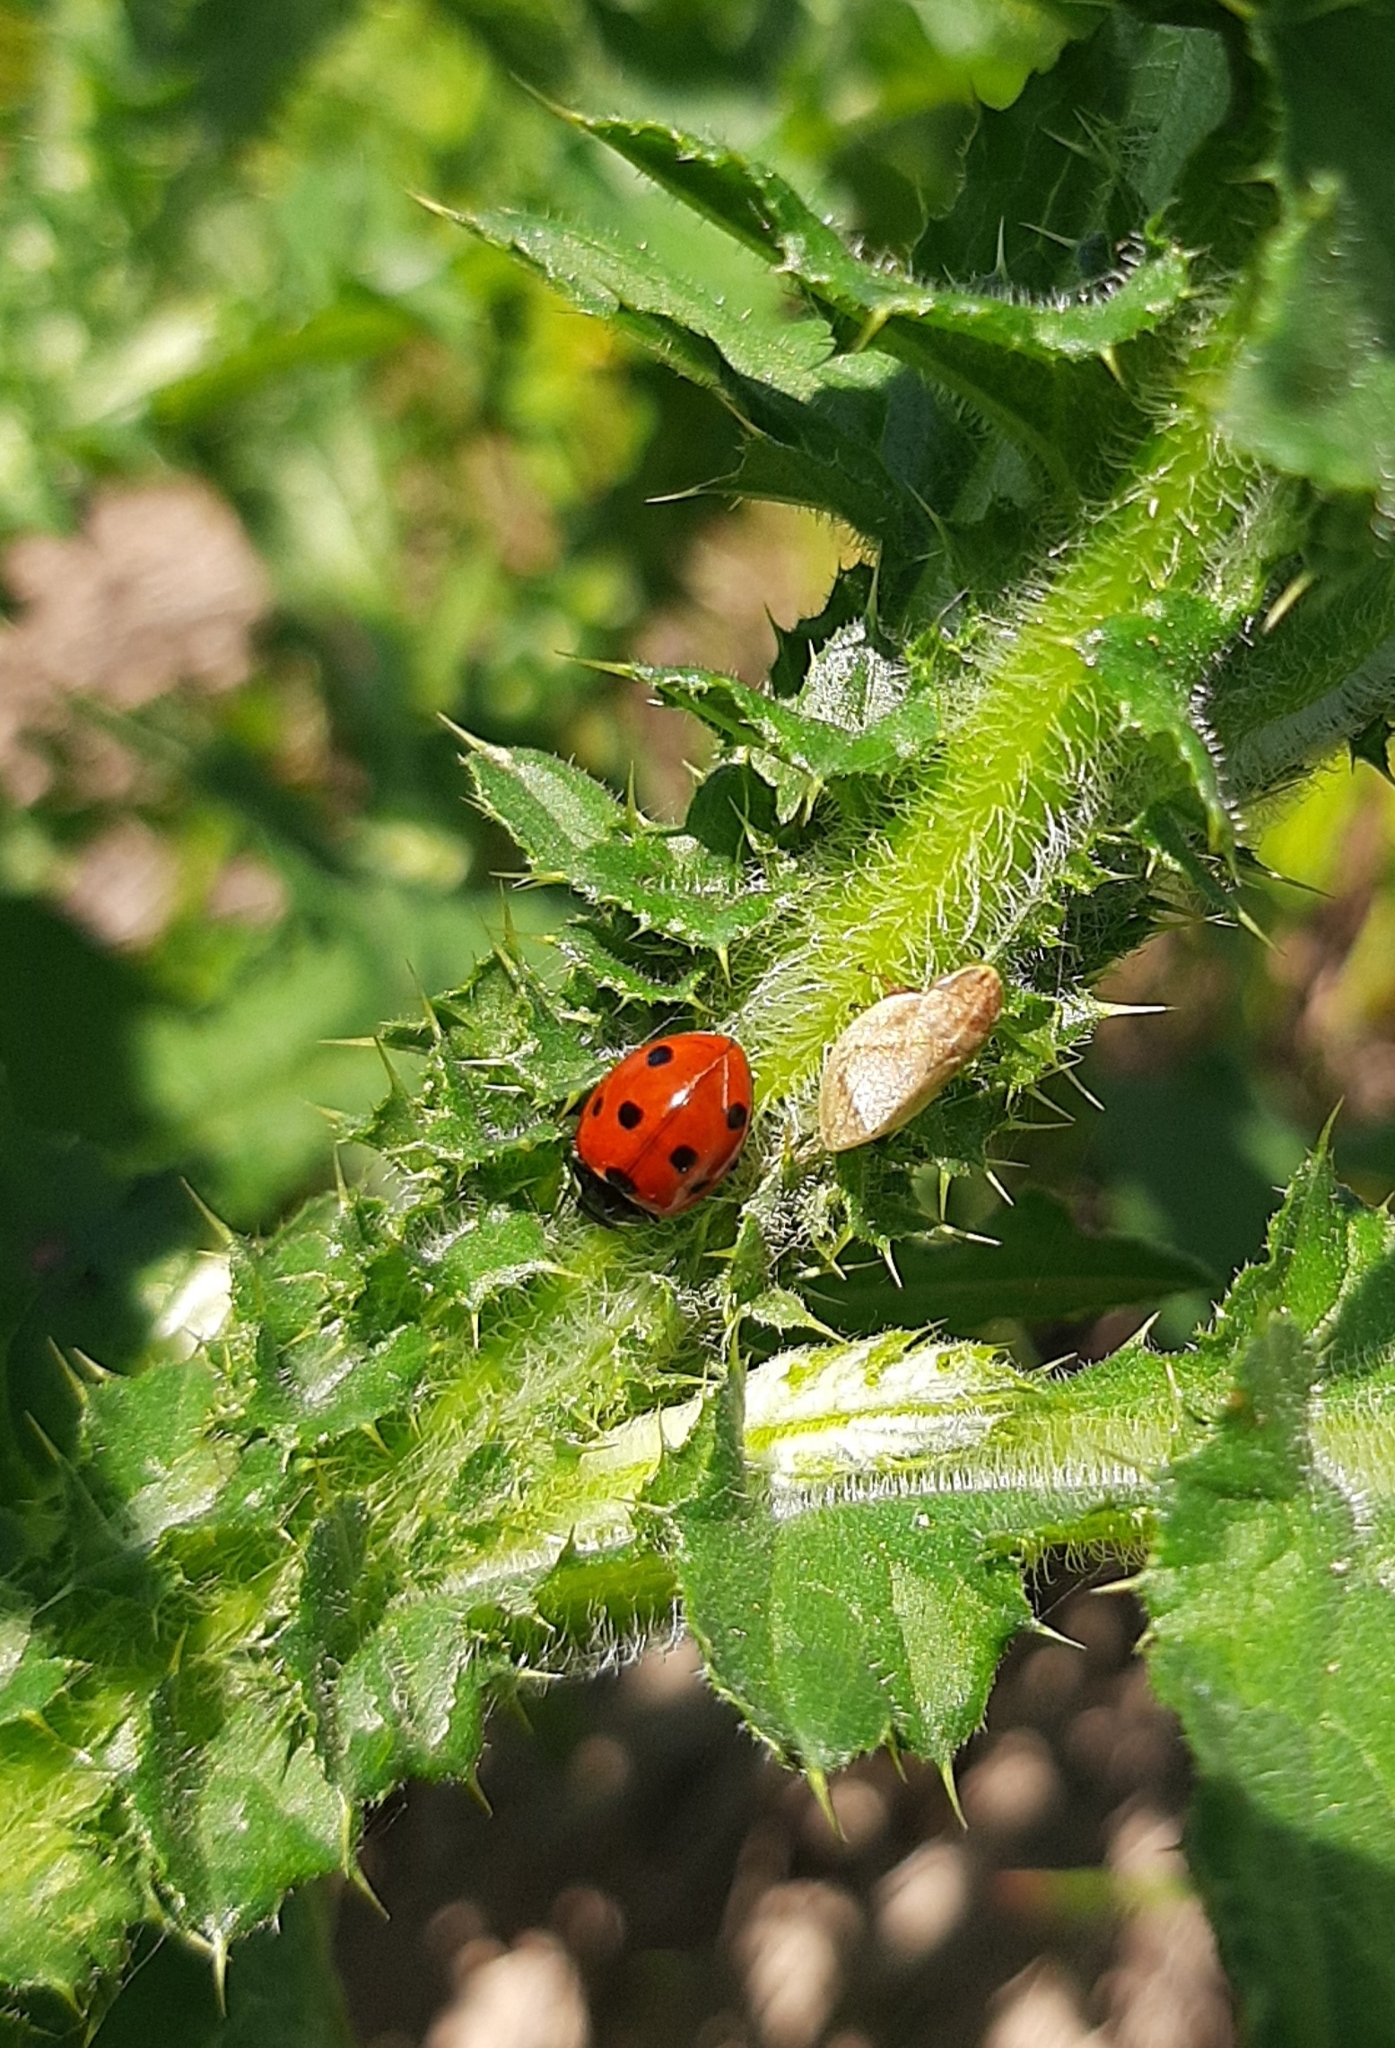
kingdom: Animalia
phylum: Arthropoda
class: Insecta
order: Coleoptera
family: Coccinellidae
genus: Coccinella
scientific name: Coccinella septempunctata
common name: Sevenspotted lady beetle
